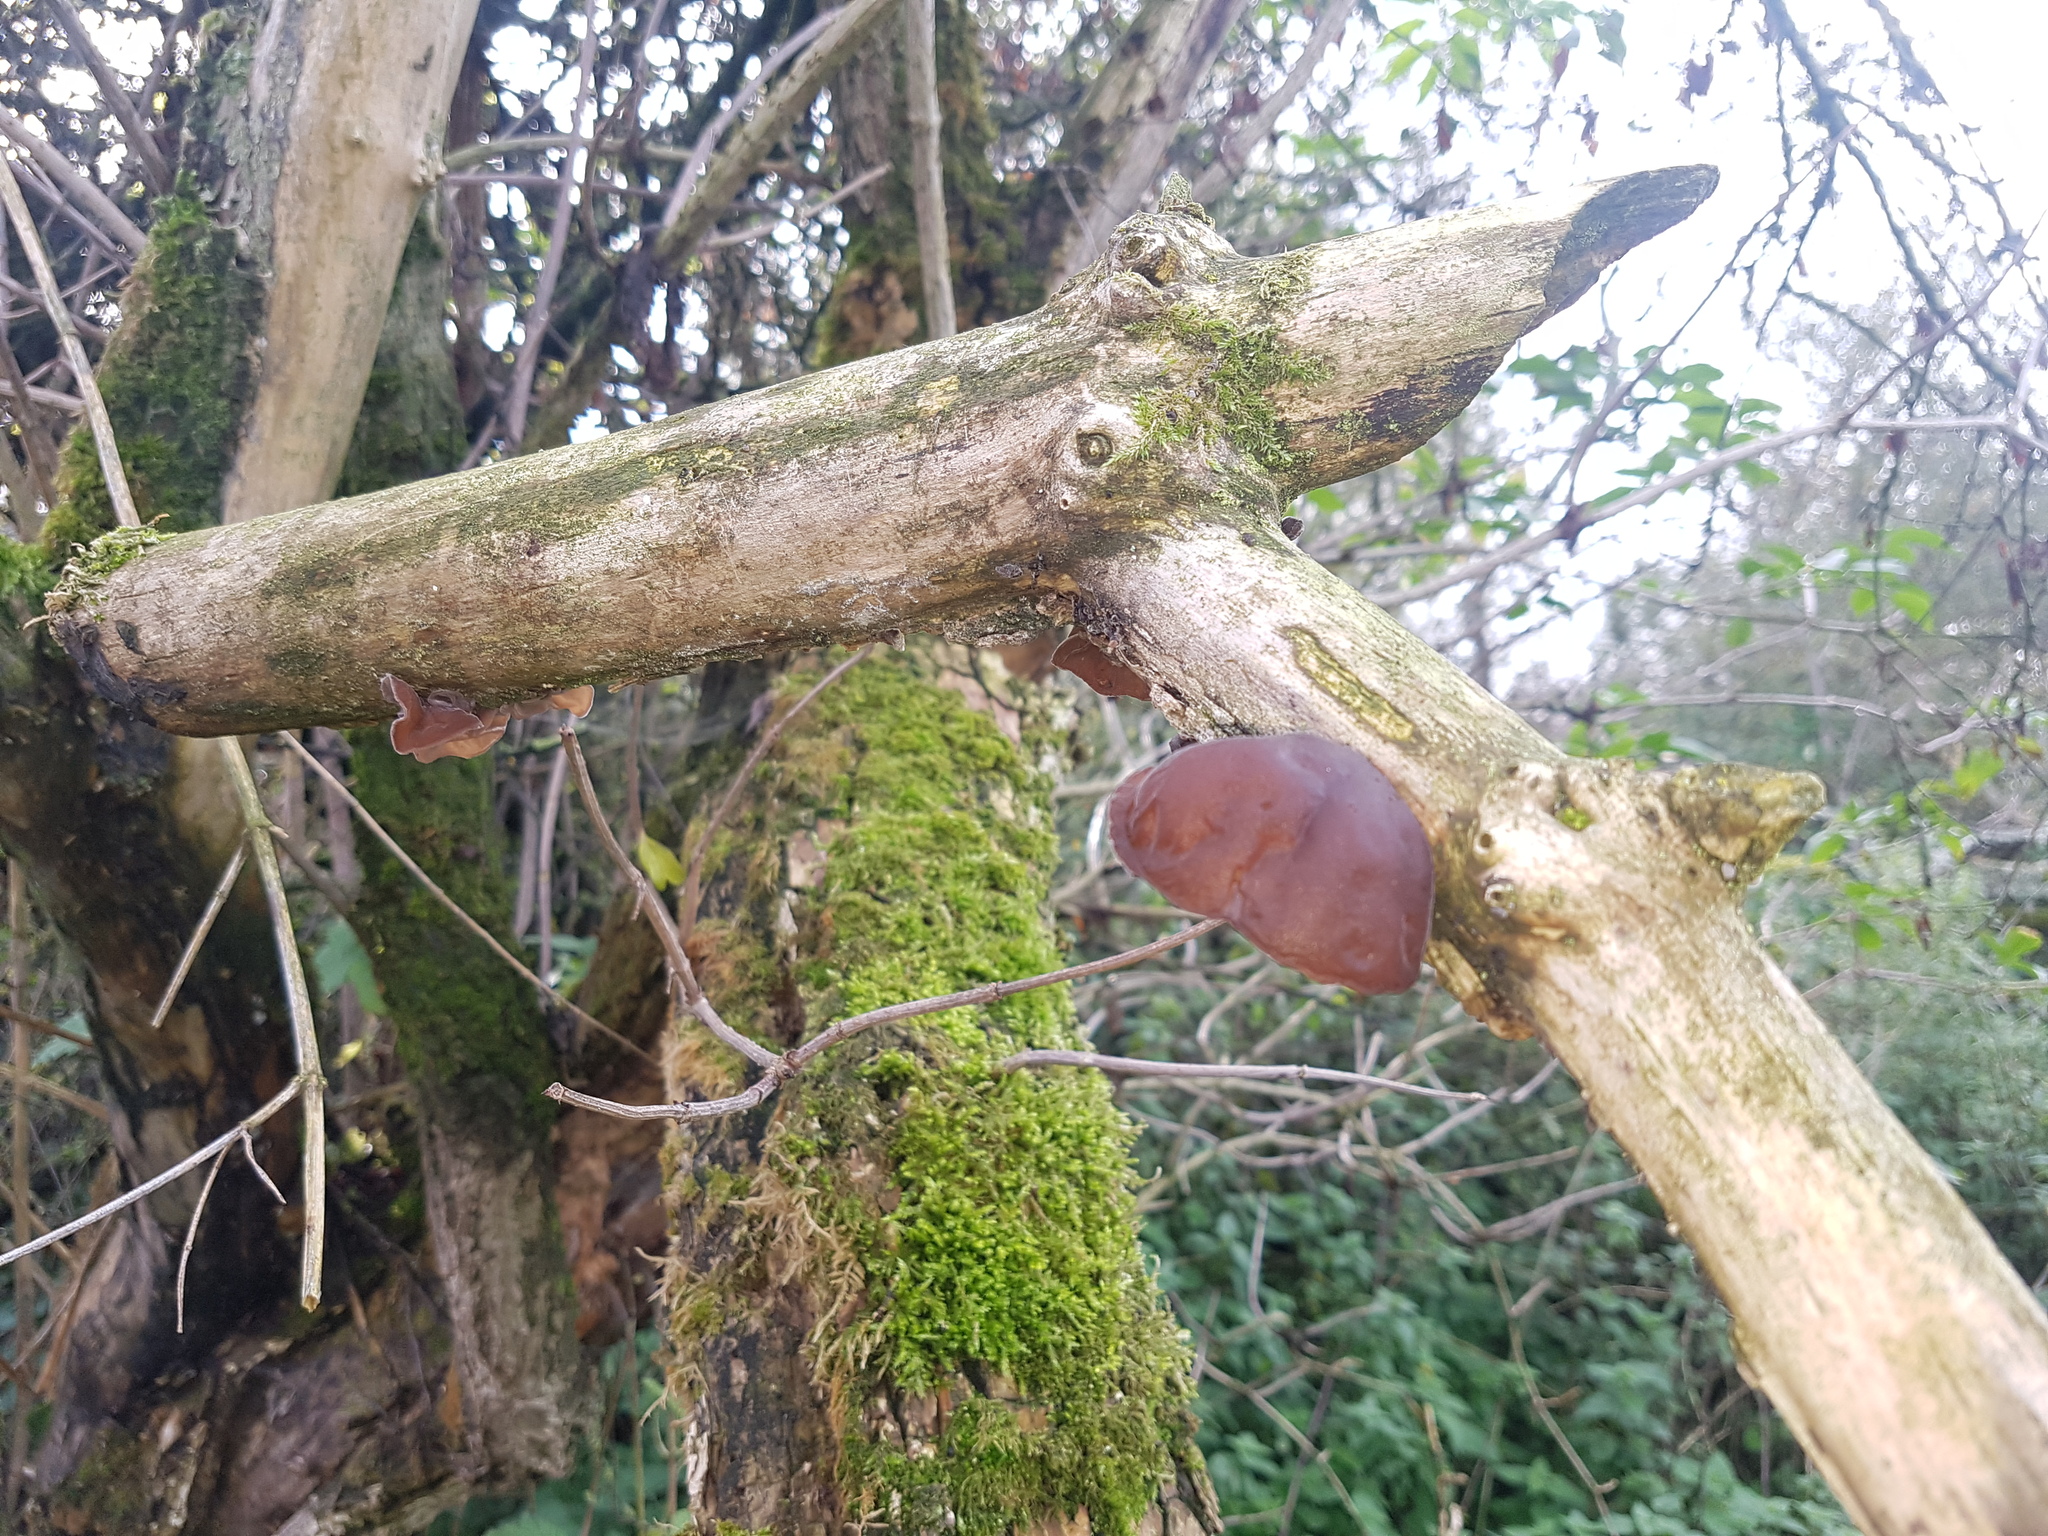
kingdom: Fungi
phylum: Basidiomycota
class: Agaricomycetes
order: Auriculariales
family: Auriculariaceae
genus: Auricularia
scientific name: Auricularia auricula-judae
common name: Jelly ear
